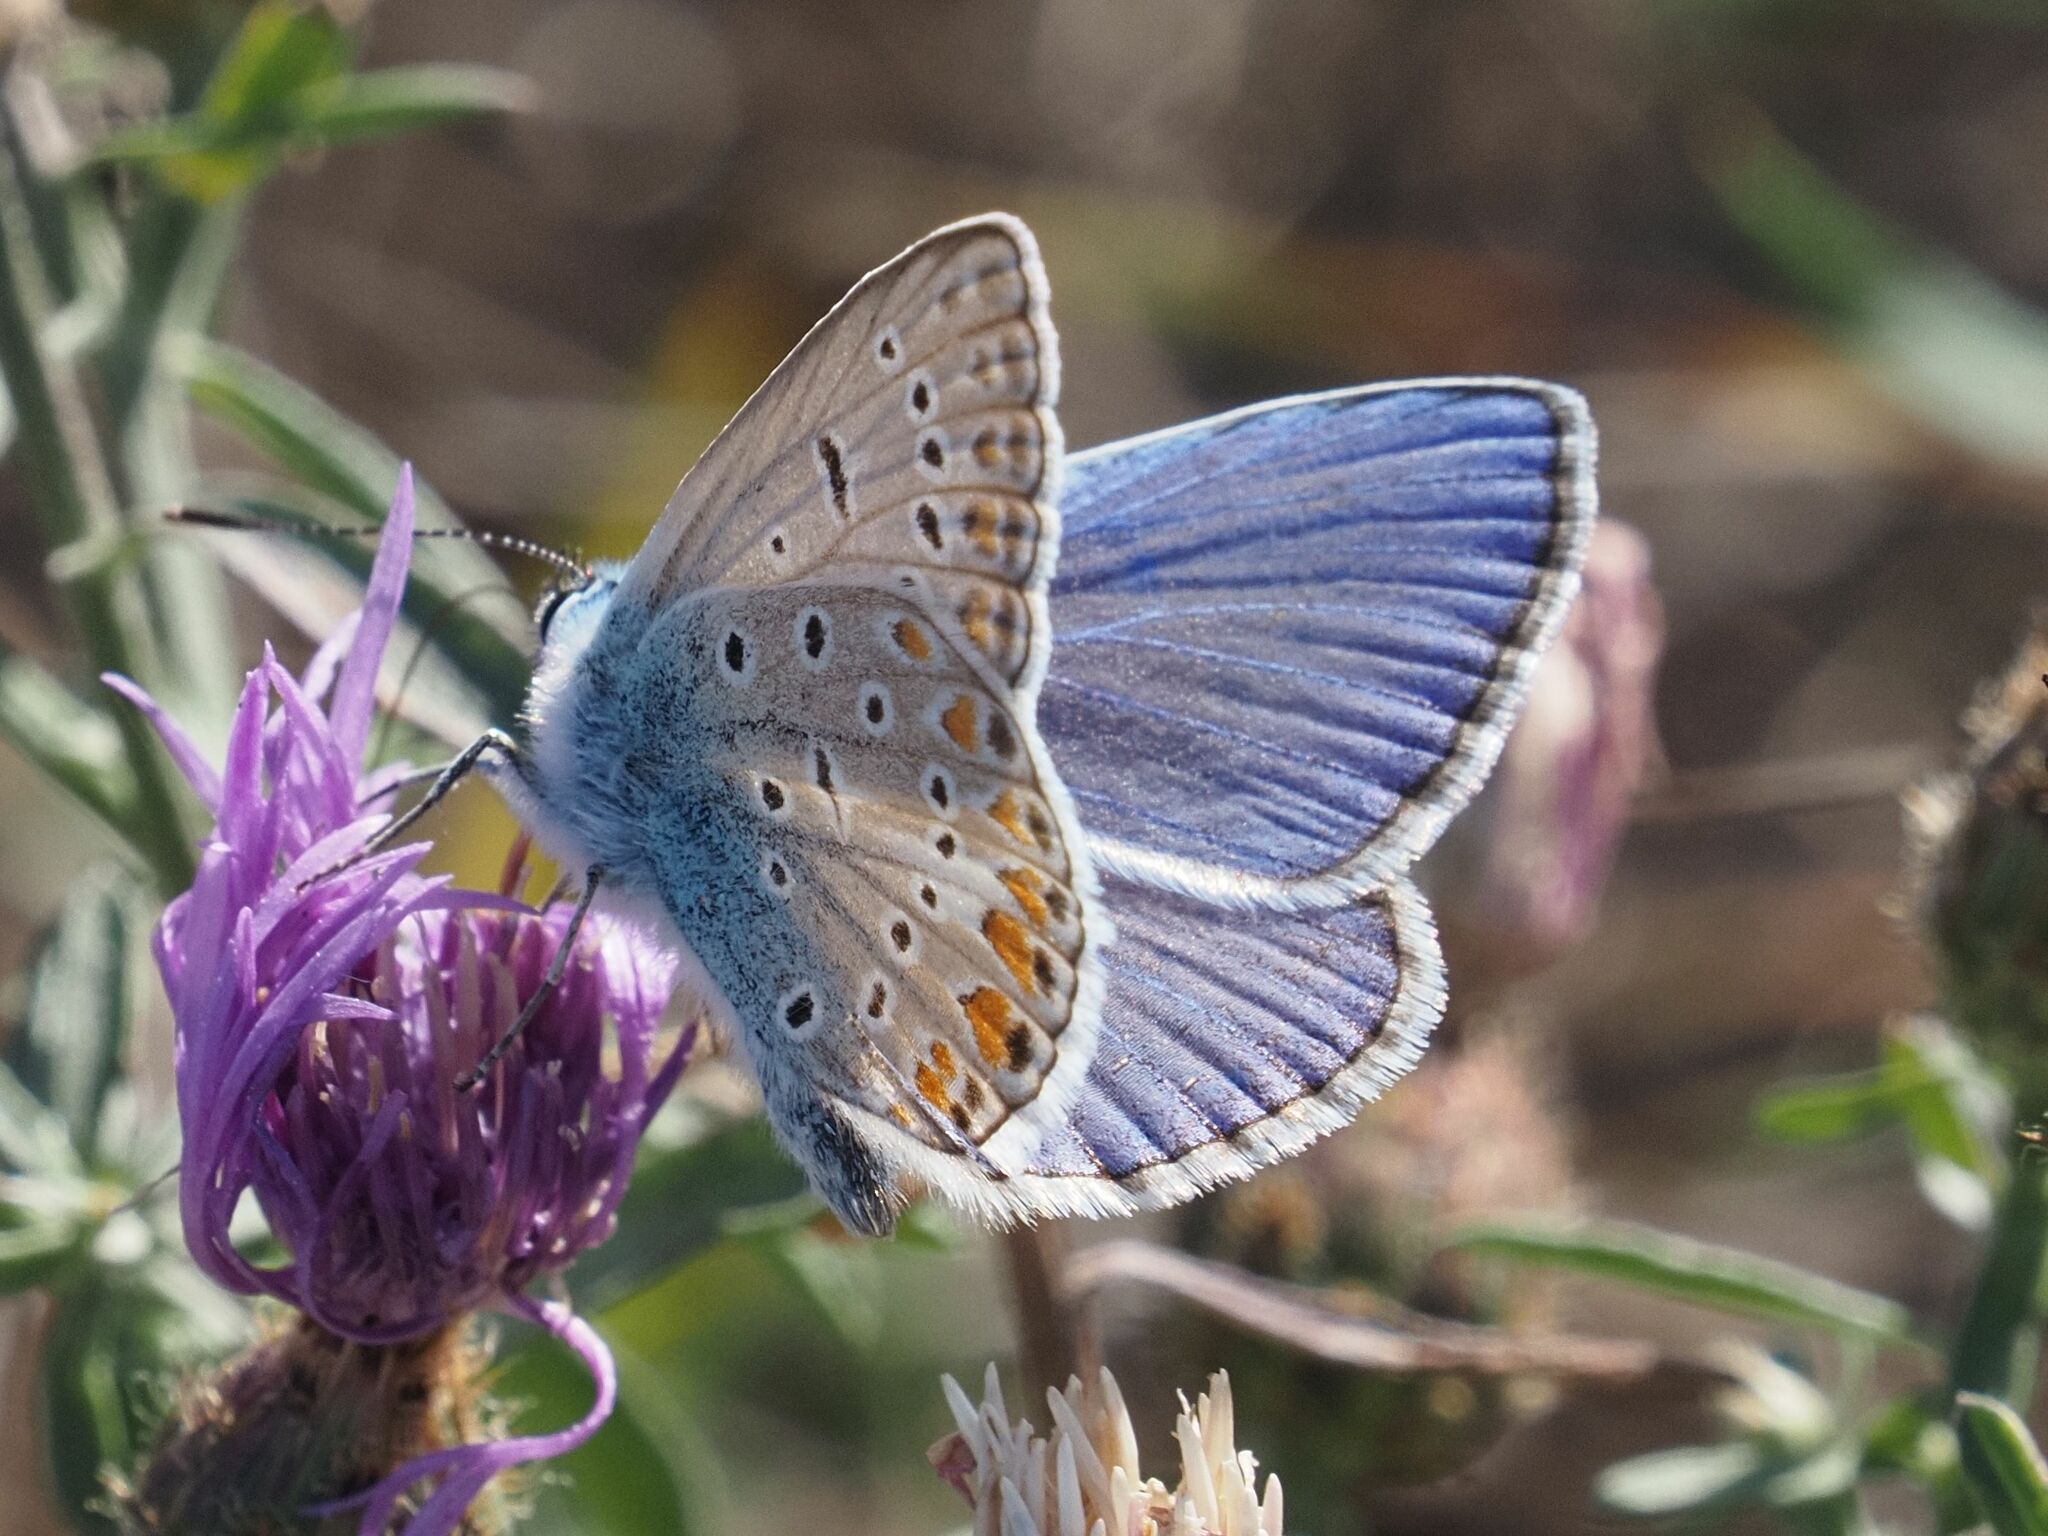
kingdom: Animalia
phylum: Arthropoda
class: Insecta
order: Lepidoptera
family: Lycaenidae
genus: Polyommatus
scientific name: Polyommatus icarus
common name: Common blue
